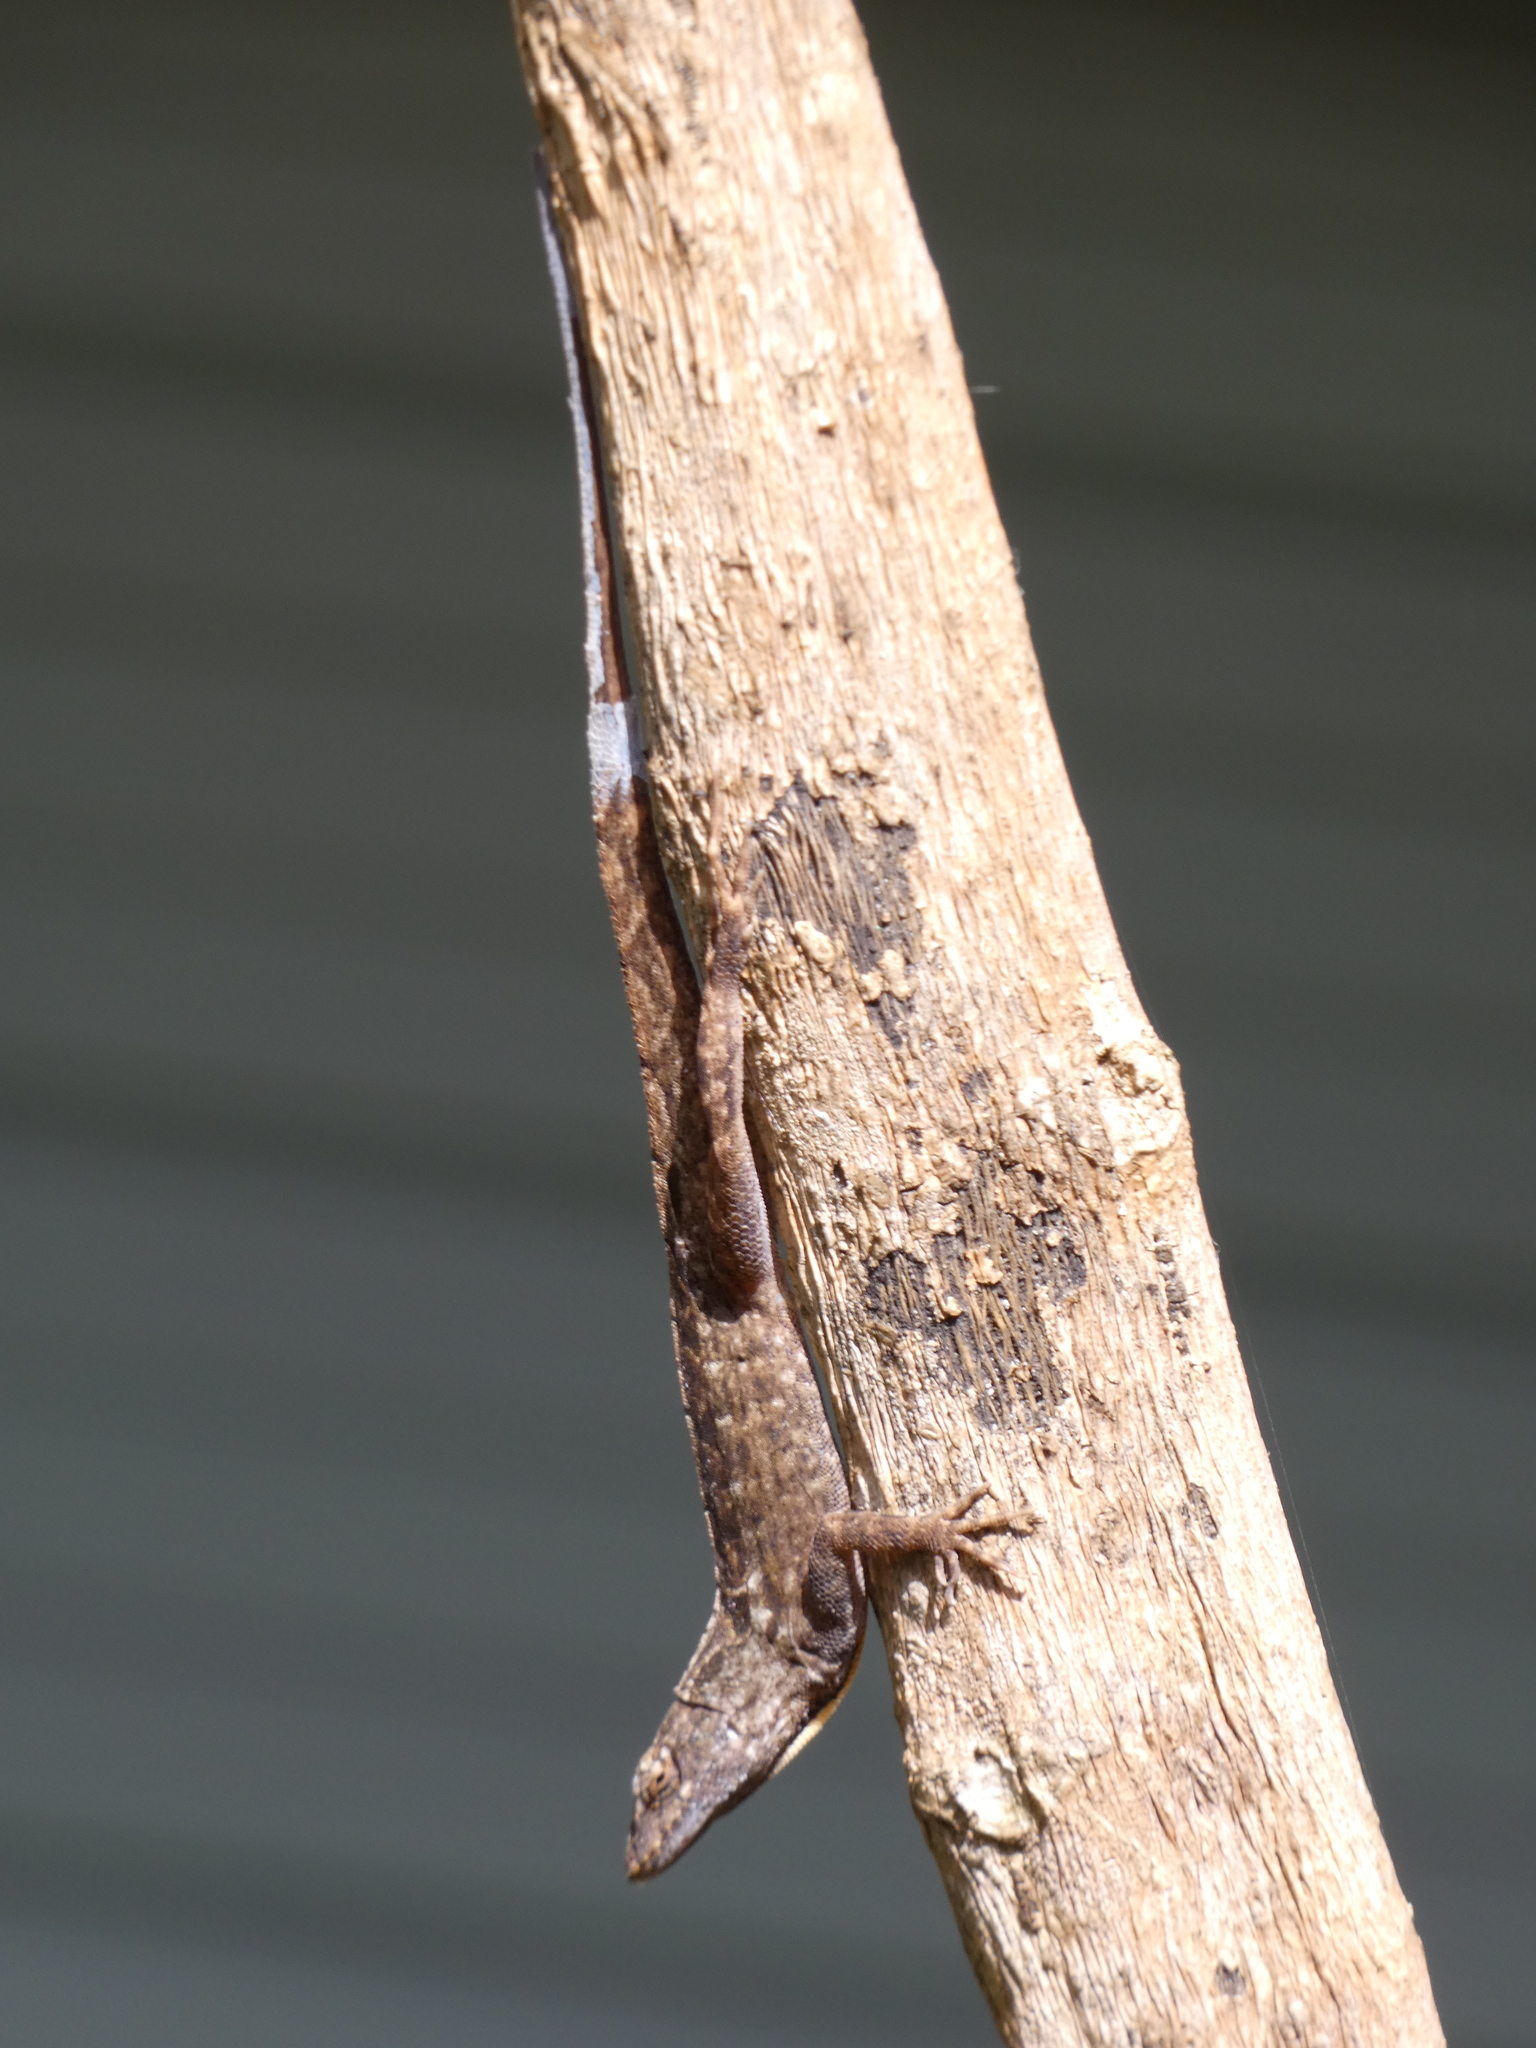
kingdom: Animalia
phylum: Chordata
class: Squamata
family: Dactyloidae
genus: Anolis
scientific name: Anolis sagrei
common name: Brown anole
